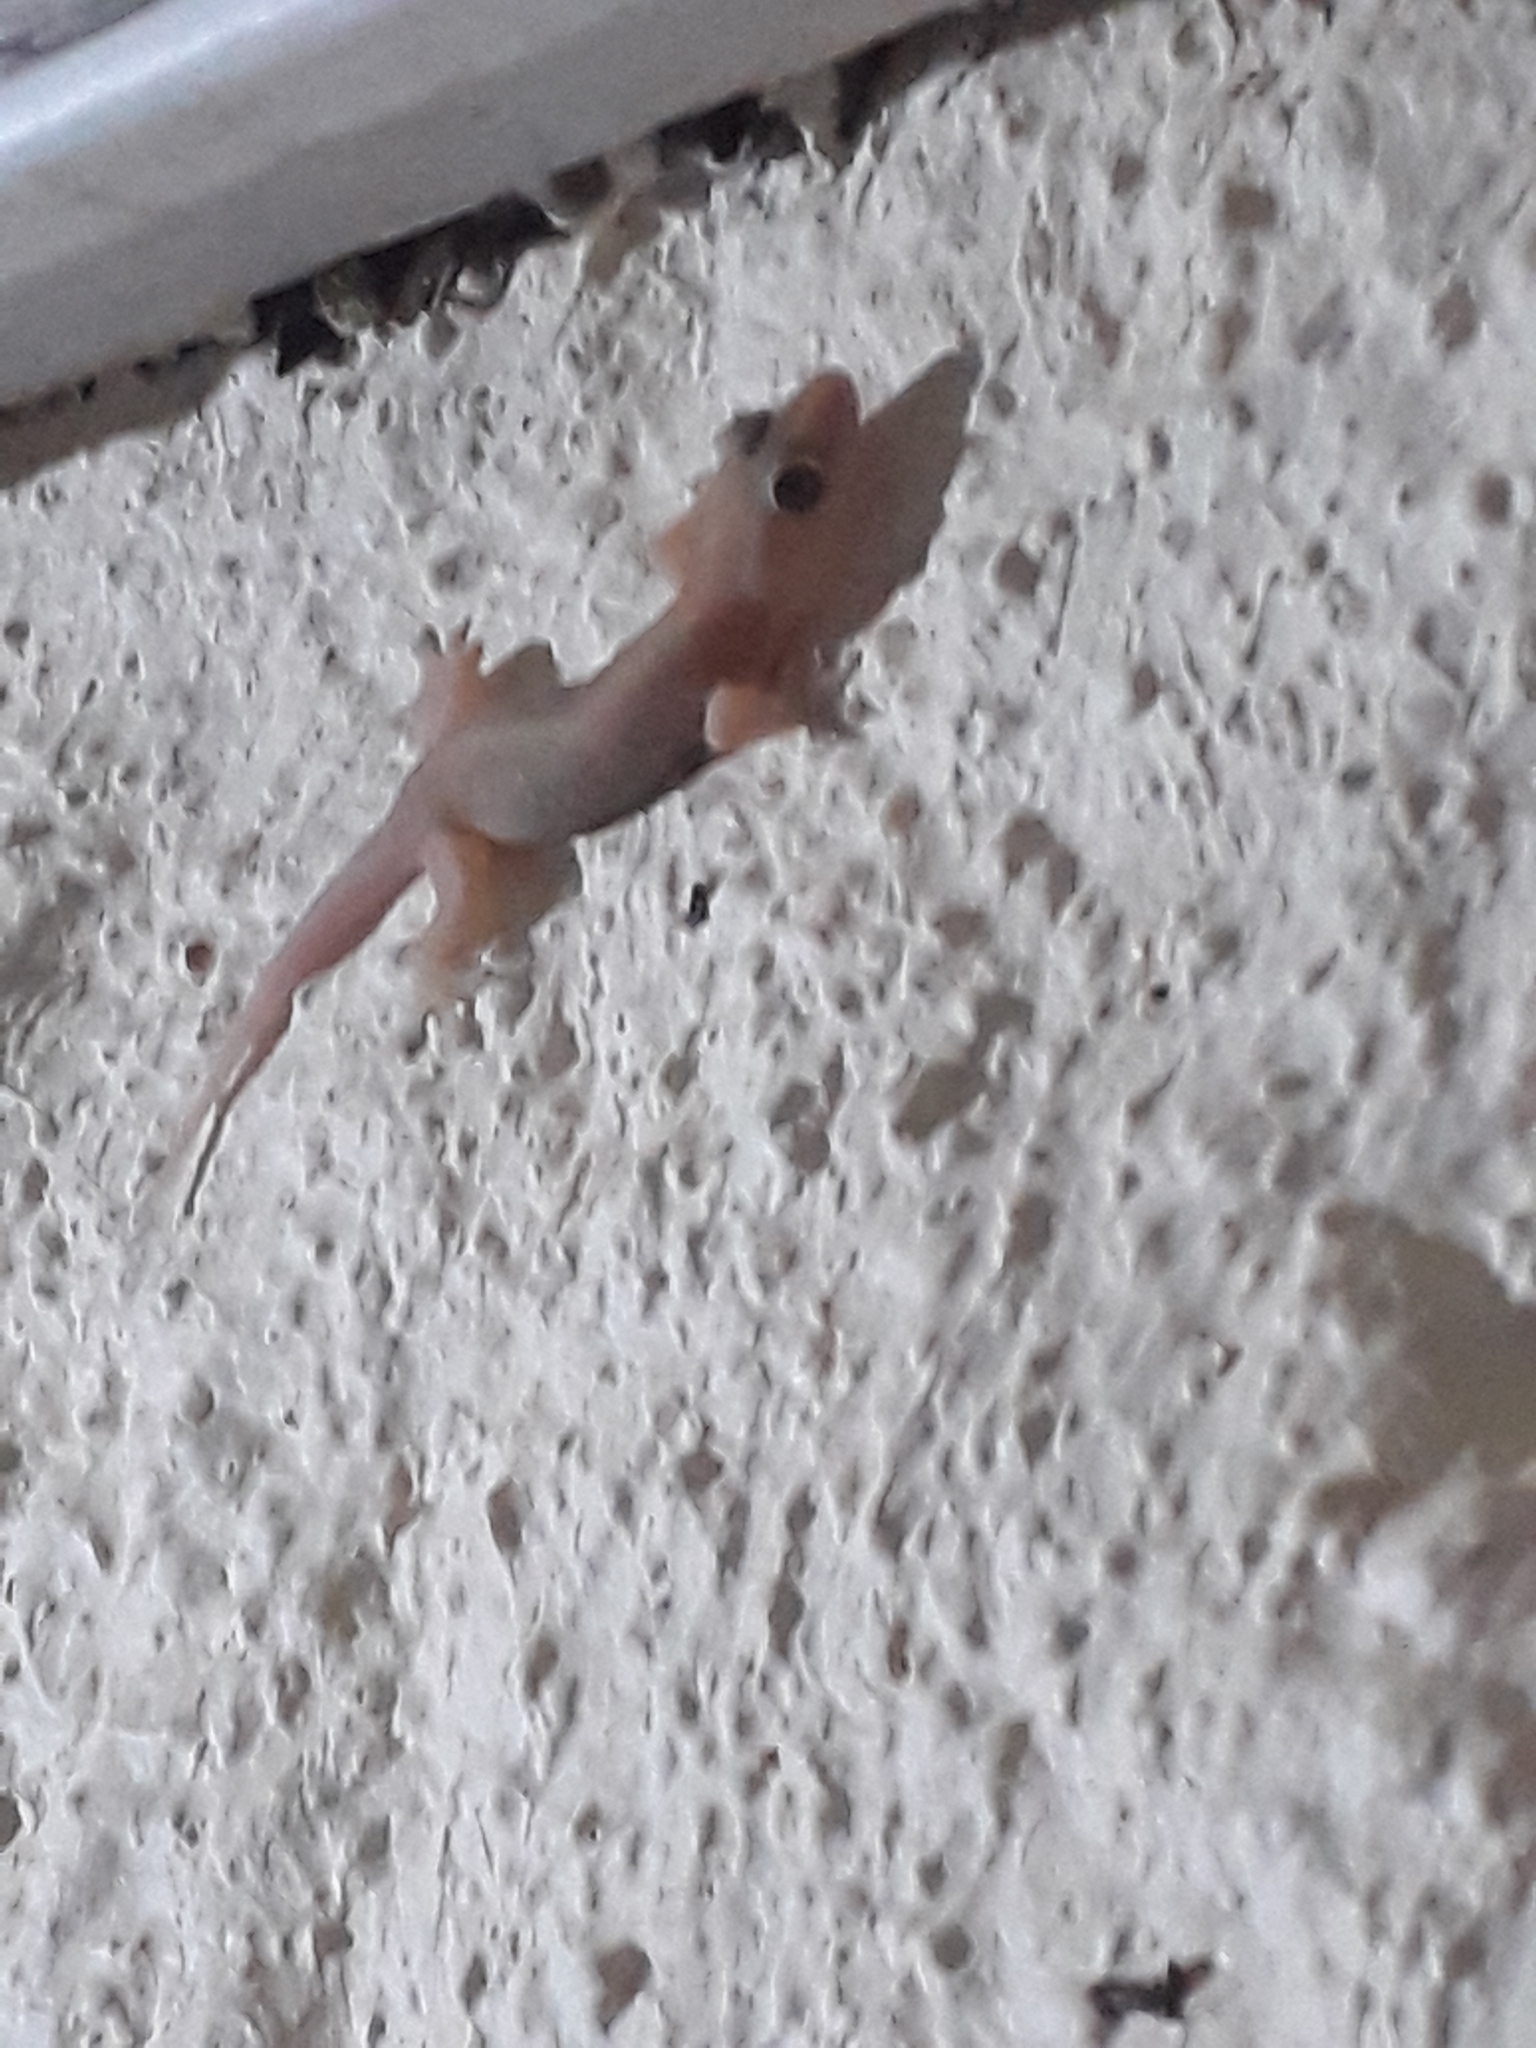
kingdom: Animalia
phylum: Chordata
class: Squamata
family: Gekkonidae
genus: Gehyra
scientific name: Gehyra mutilata
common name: Stump-toed gecko
